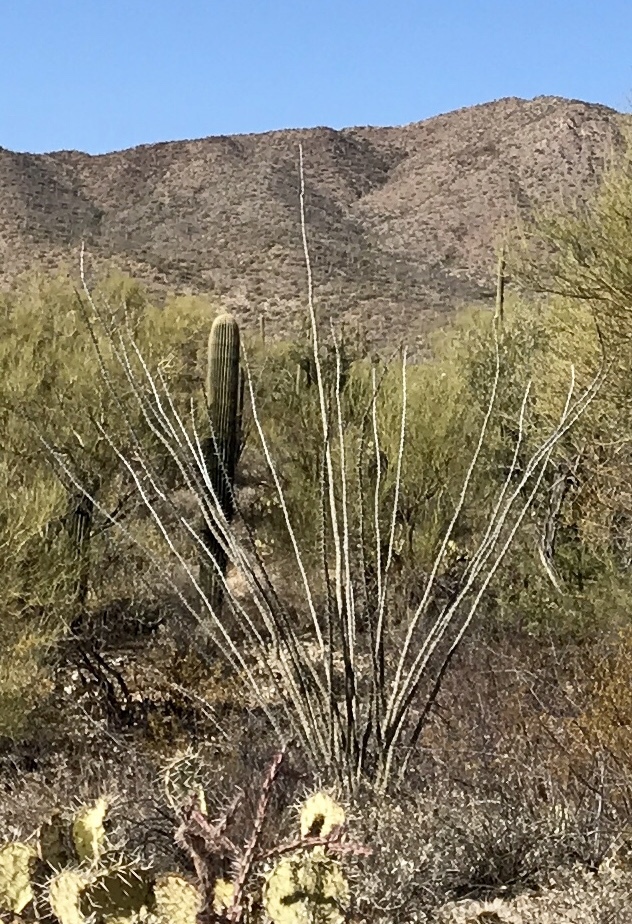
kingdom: Plantae
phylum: Tracheophyta
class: Magnoliopsida
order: Ericales
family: Fouquieriaceae
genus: Fouquieria
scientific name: Fouquieria splendens
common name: Vine-cactus
